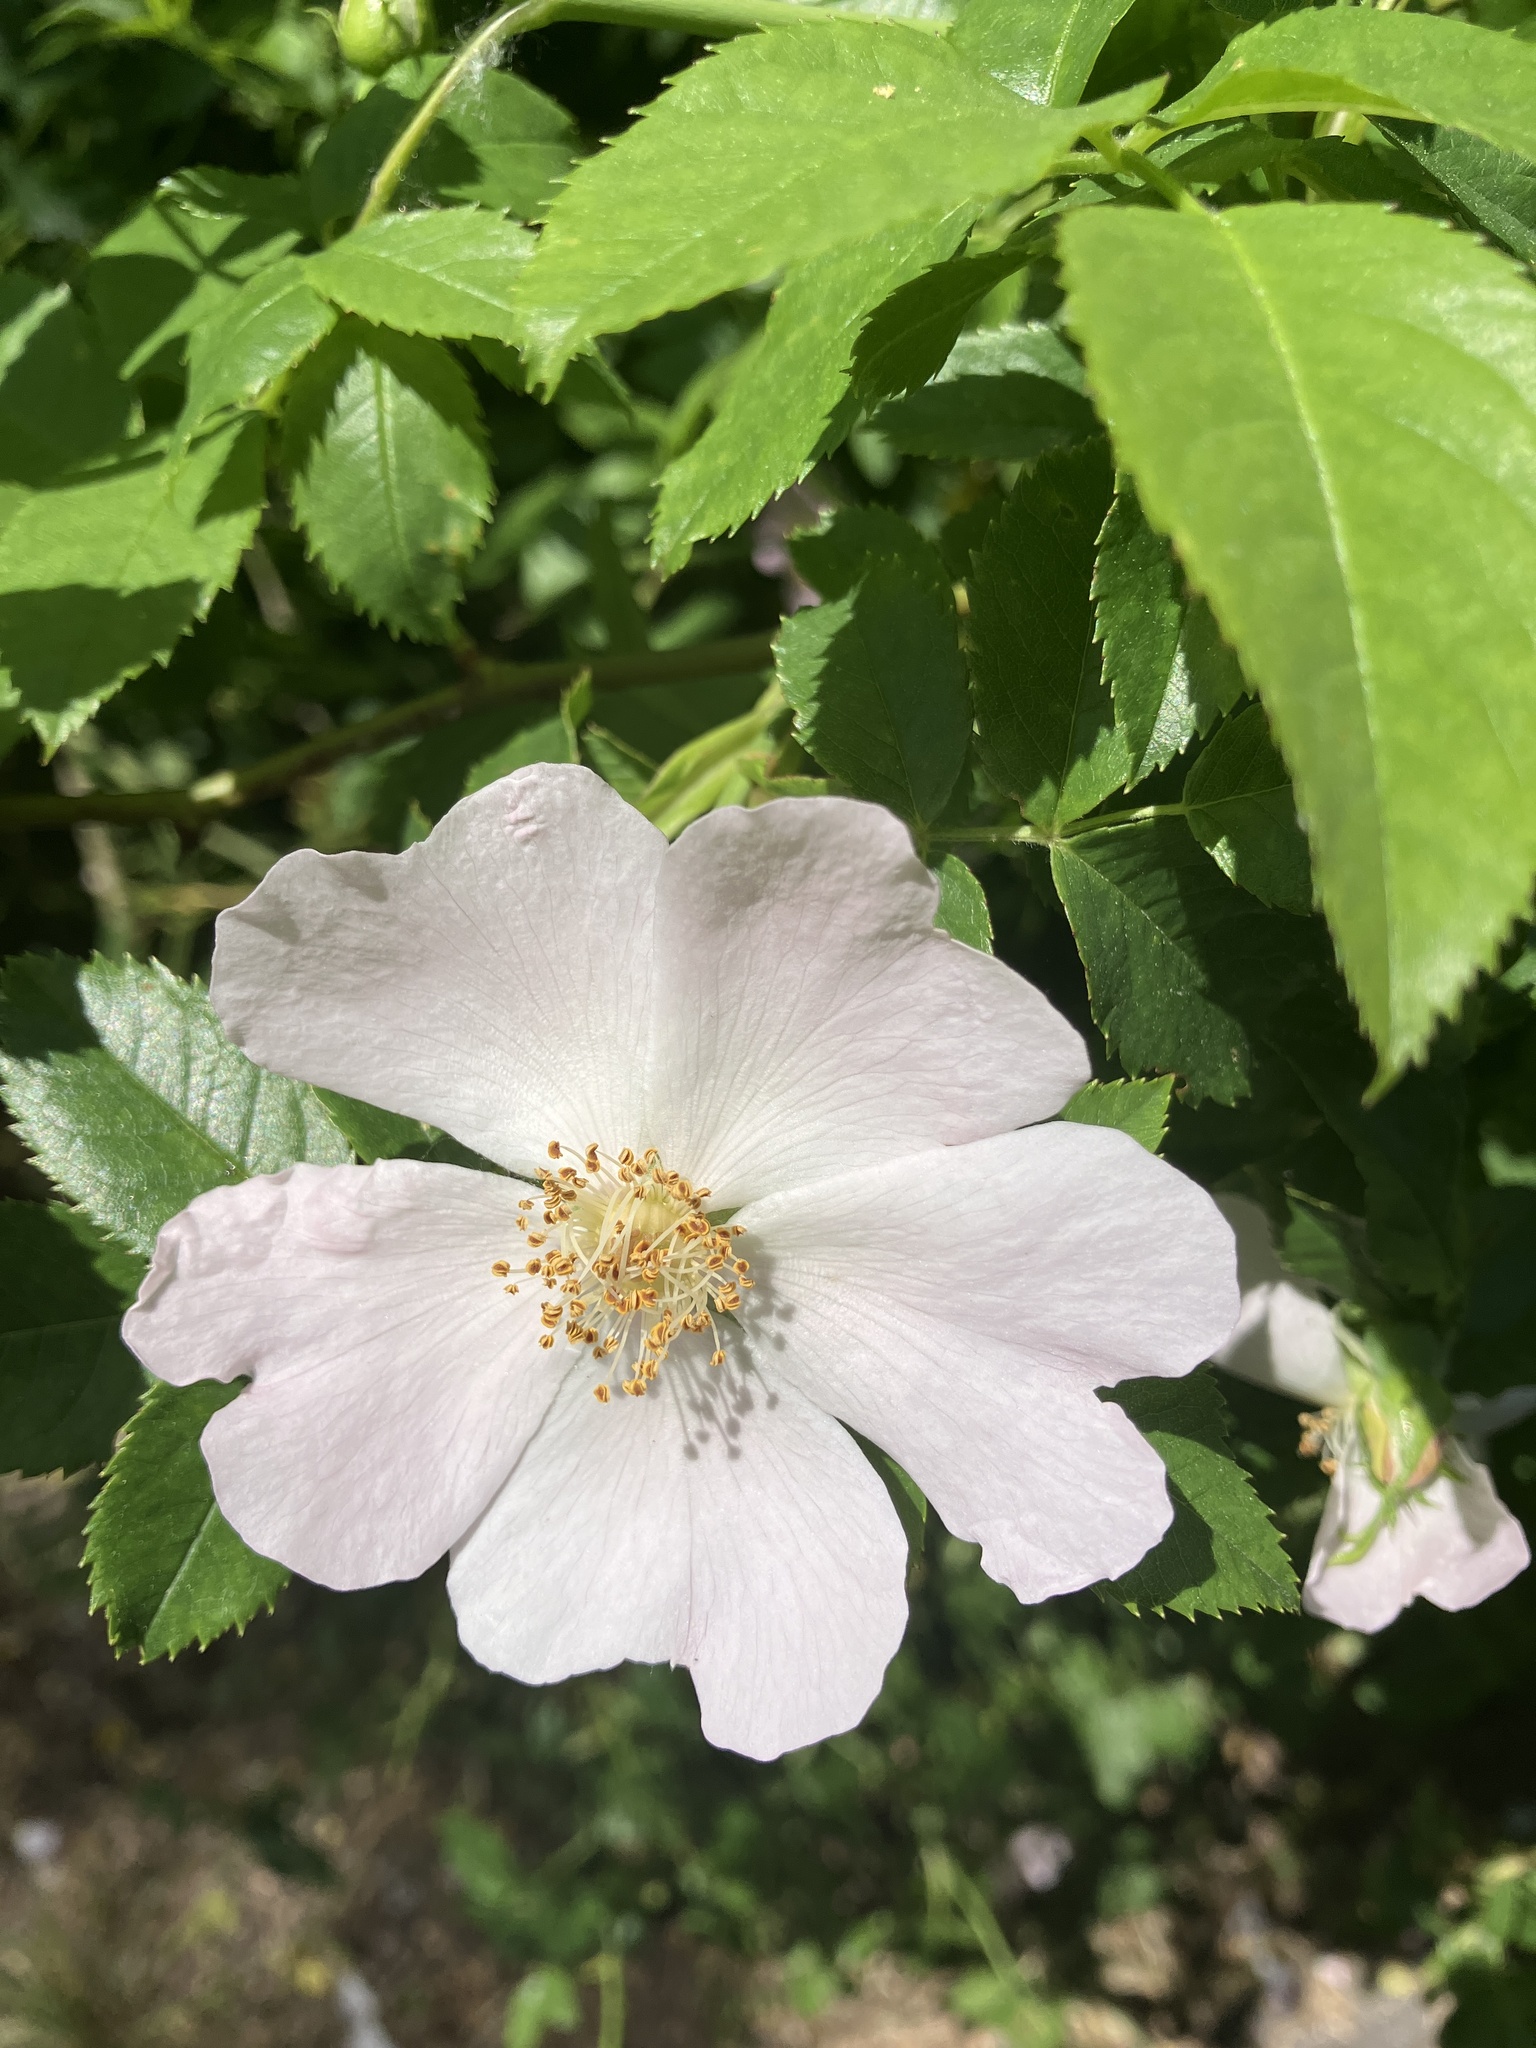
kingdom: Plantae
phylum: Tracheophyta
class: Magnoliopsida
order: Rosales
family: Rosaceae
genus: Rosa
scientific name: Rosa canina
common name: Dog rose
